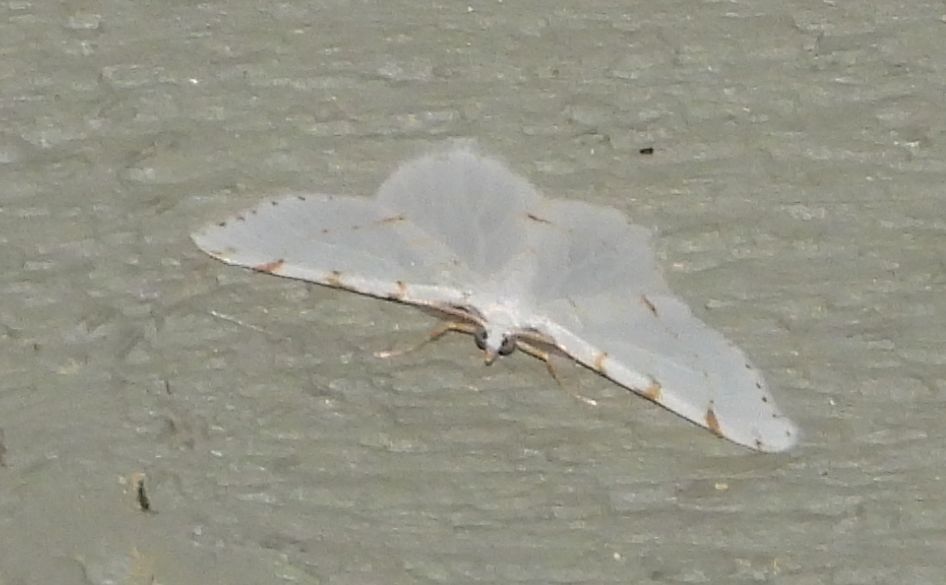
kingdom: Animalia
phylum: Arthropoda
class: Insecta
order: Lepidoptera
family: Geometridae
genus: Macaria
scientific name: Macaria pustularia
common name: Lesser maple spanworm moth
